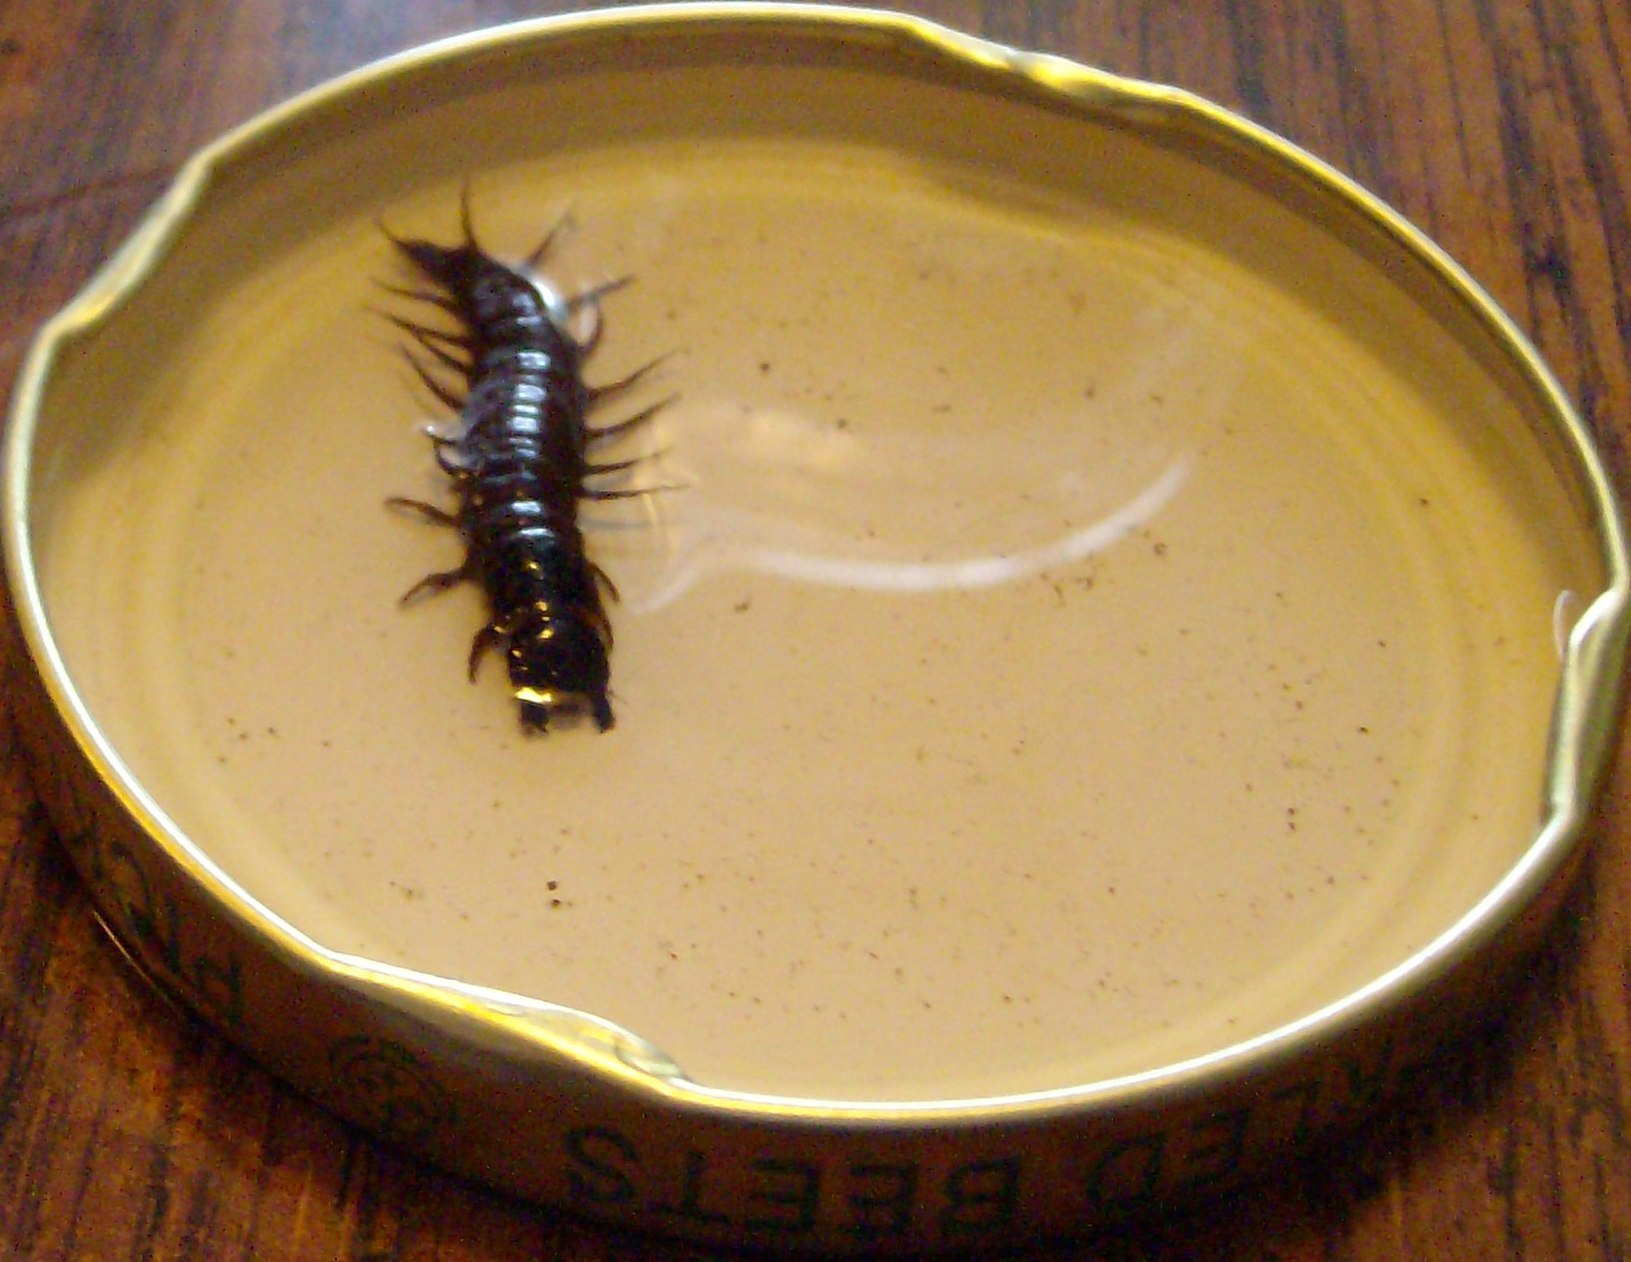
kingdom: Animalia
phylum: Arthropoda
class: Insecta
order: Megaloptera
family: Corydalidae
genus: Nigronia
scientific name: Nigronia serricornis
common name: Serrate dark fishfly
